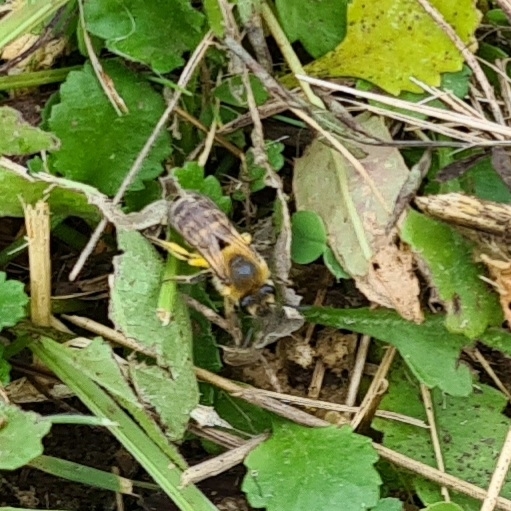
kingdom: Animalia
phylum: Arthropoda
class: Insecta
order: Hymenoptera
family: Colletidae
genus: Colletes
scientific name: Colletes hederae
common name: Ivy bee
